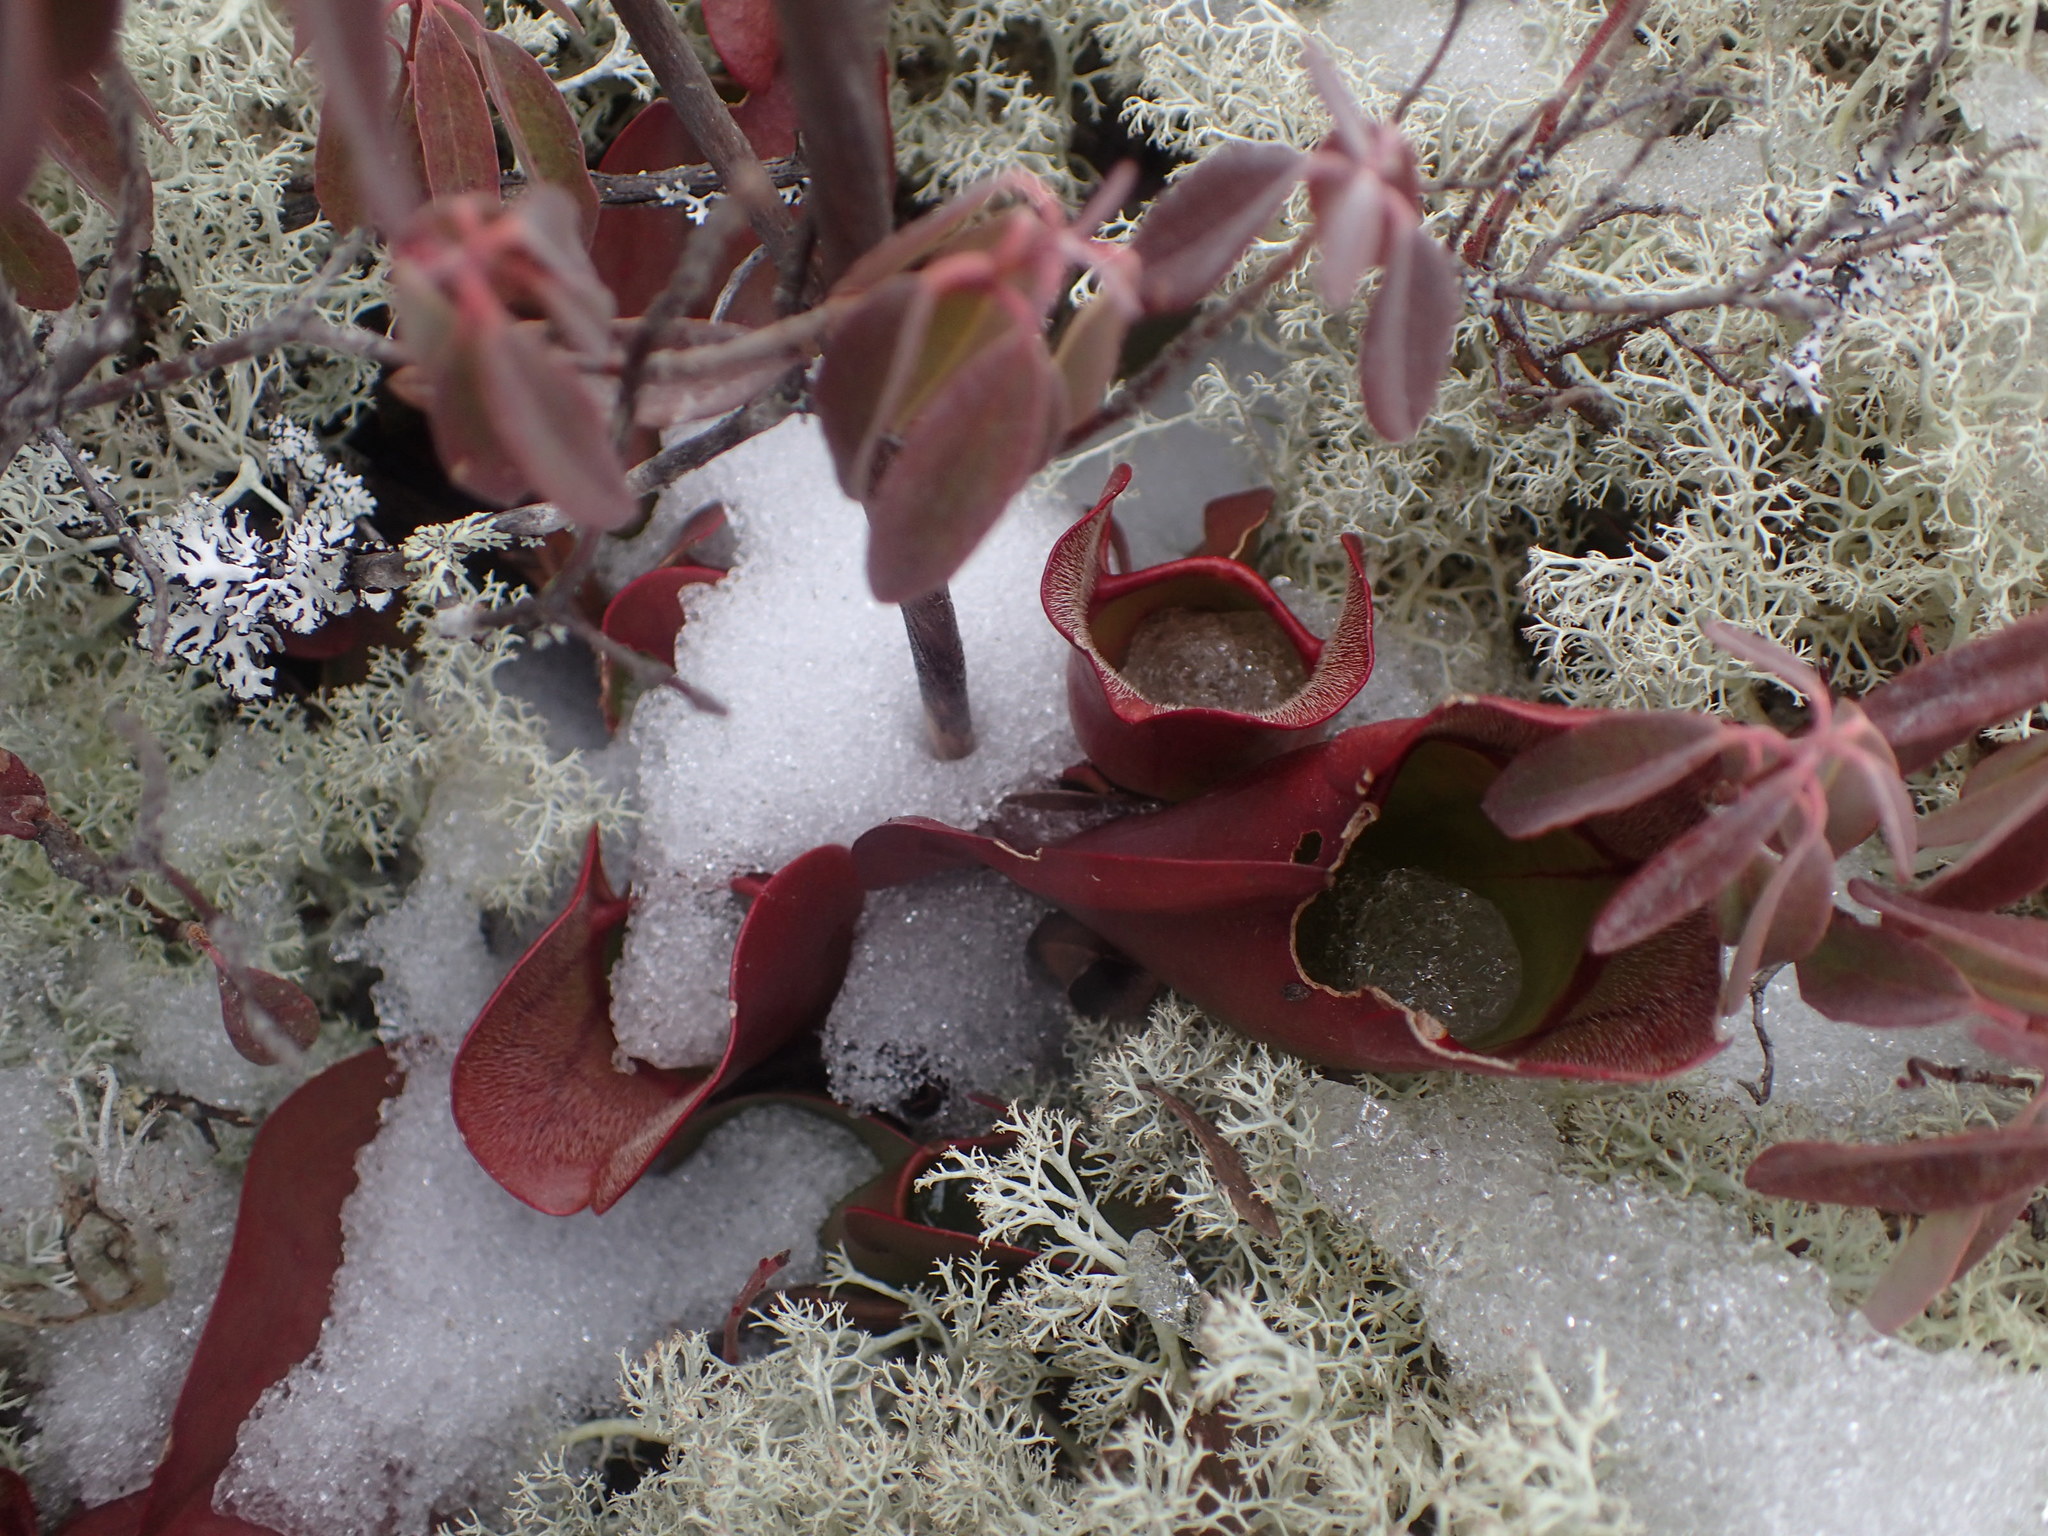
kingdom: Plantae
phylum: Tracheophyta
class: Magnoliopsida
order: Ericales
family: Sarraceniaceae
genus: Sarracenia
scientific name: Sarracenia purpurea
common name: Pitcherplant
